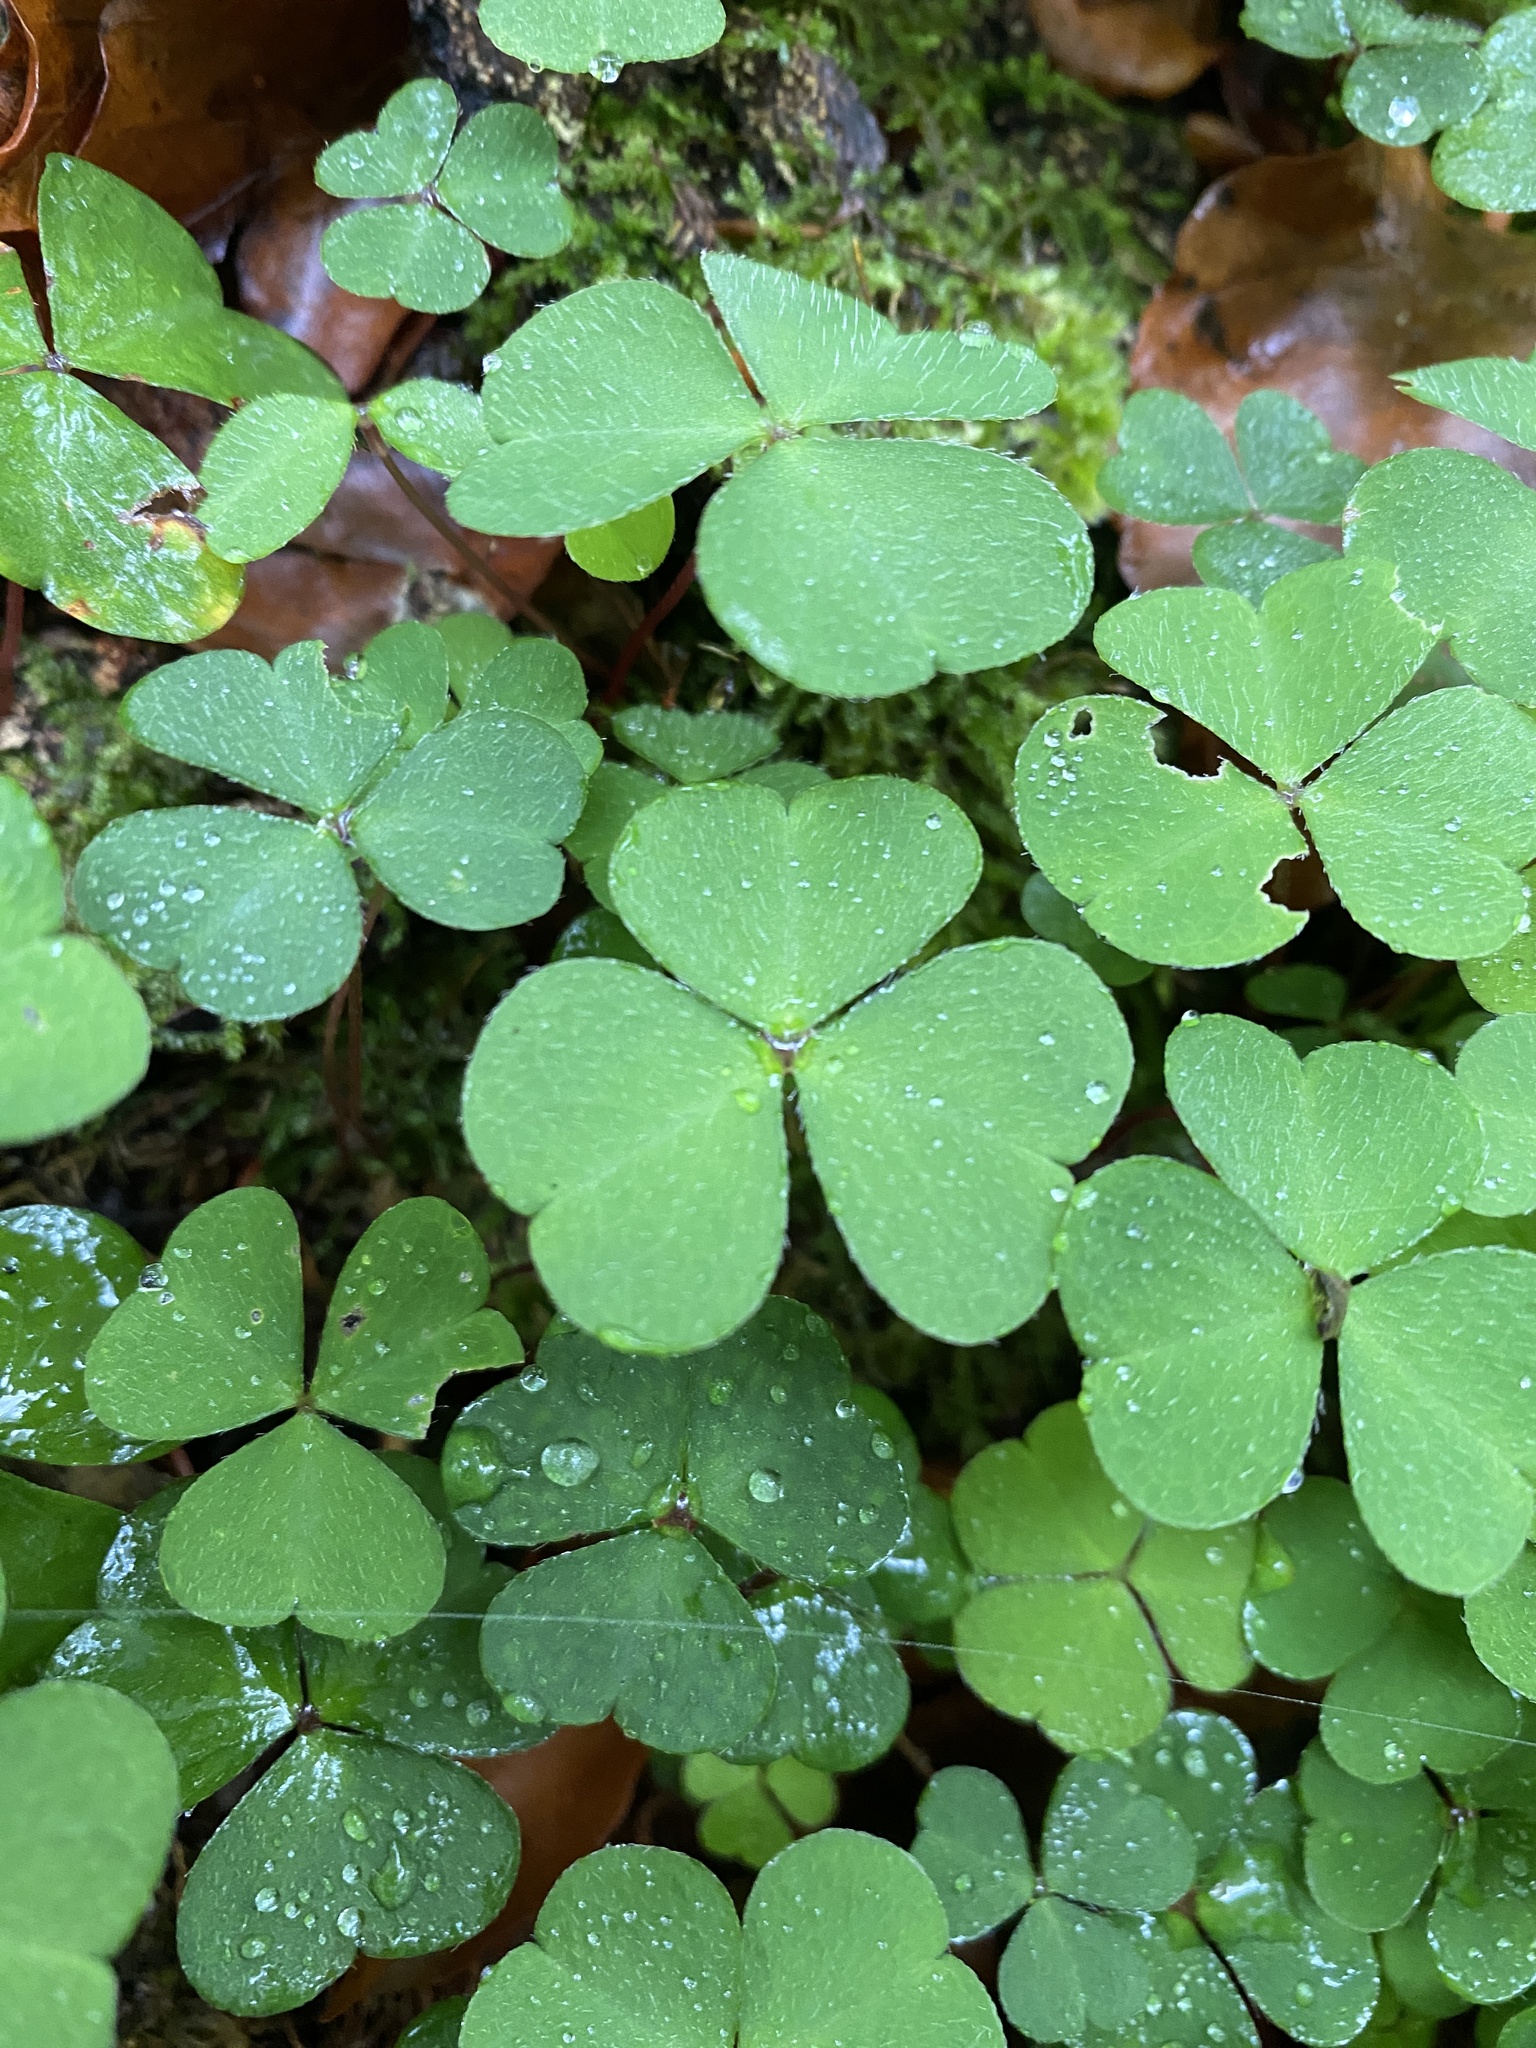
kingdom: Plantae
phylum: Tracheophyta
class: Magnoliopsida
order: Oxalidales
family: Oxalidaceae
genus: Oxalis
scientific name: Oxalis acetosella
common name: Wood-sorrel
